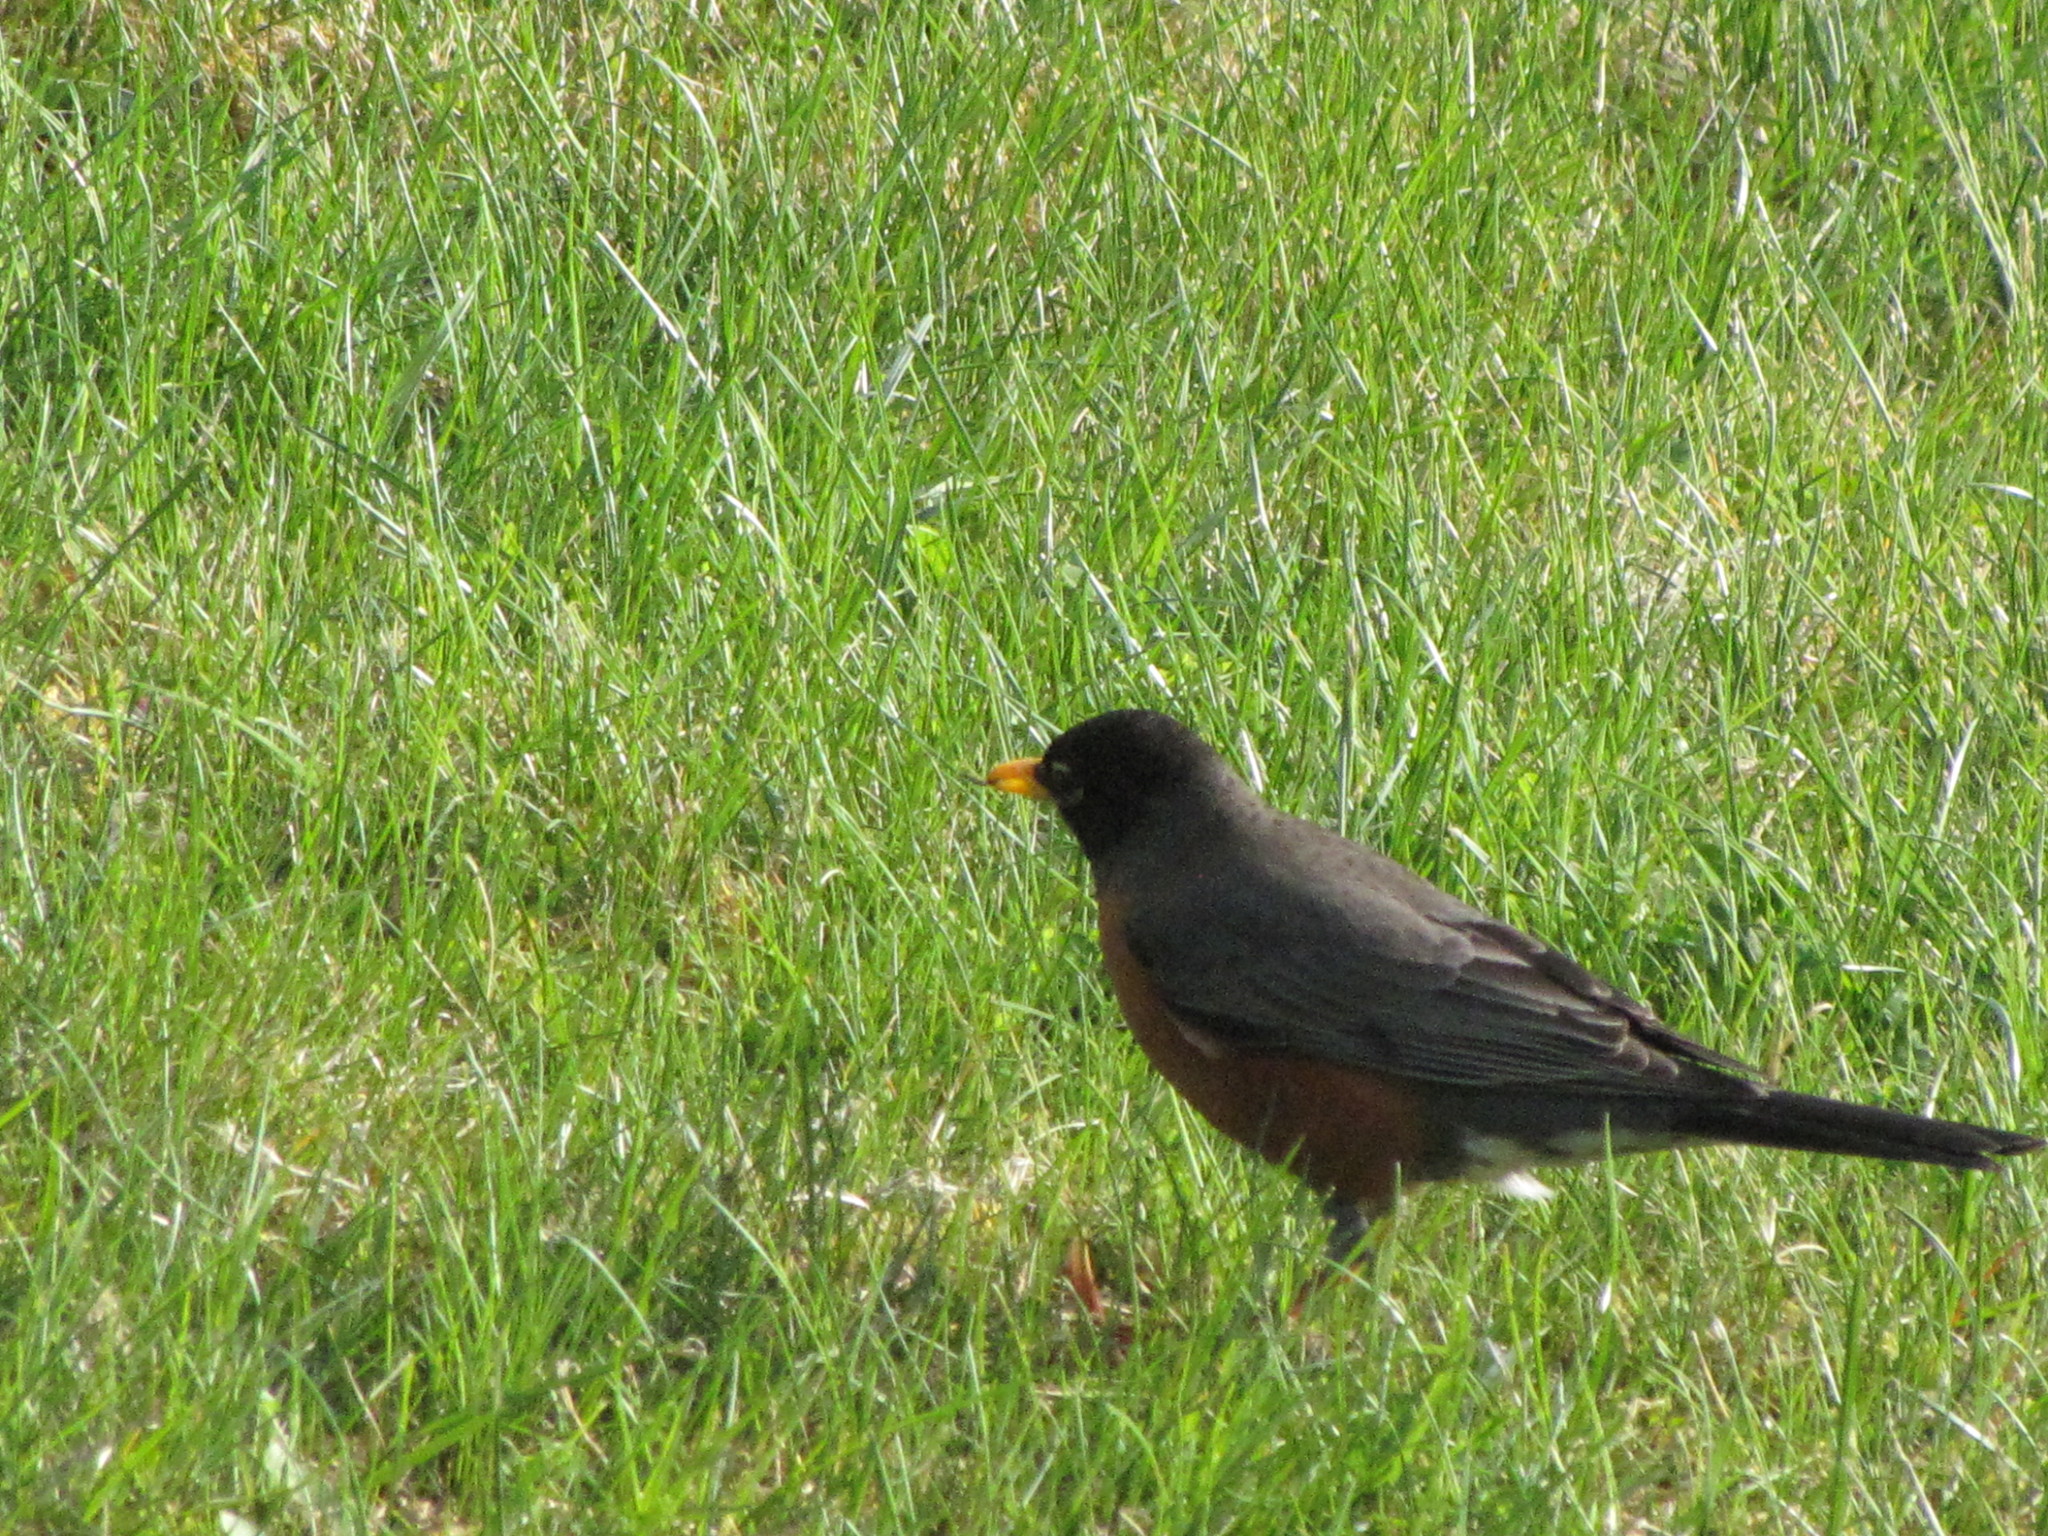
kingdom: Animalia
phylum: Chordata
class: Aves
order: Passeriformes
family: Turdidae
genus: Turdus
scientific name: Turdus migratorius
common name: American robin
